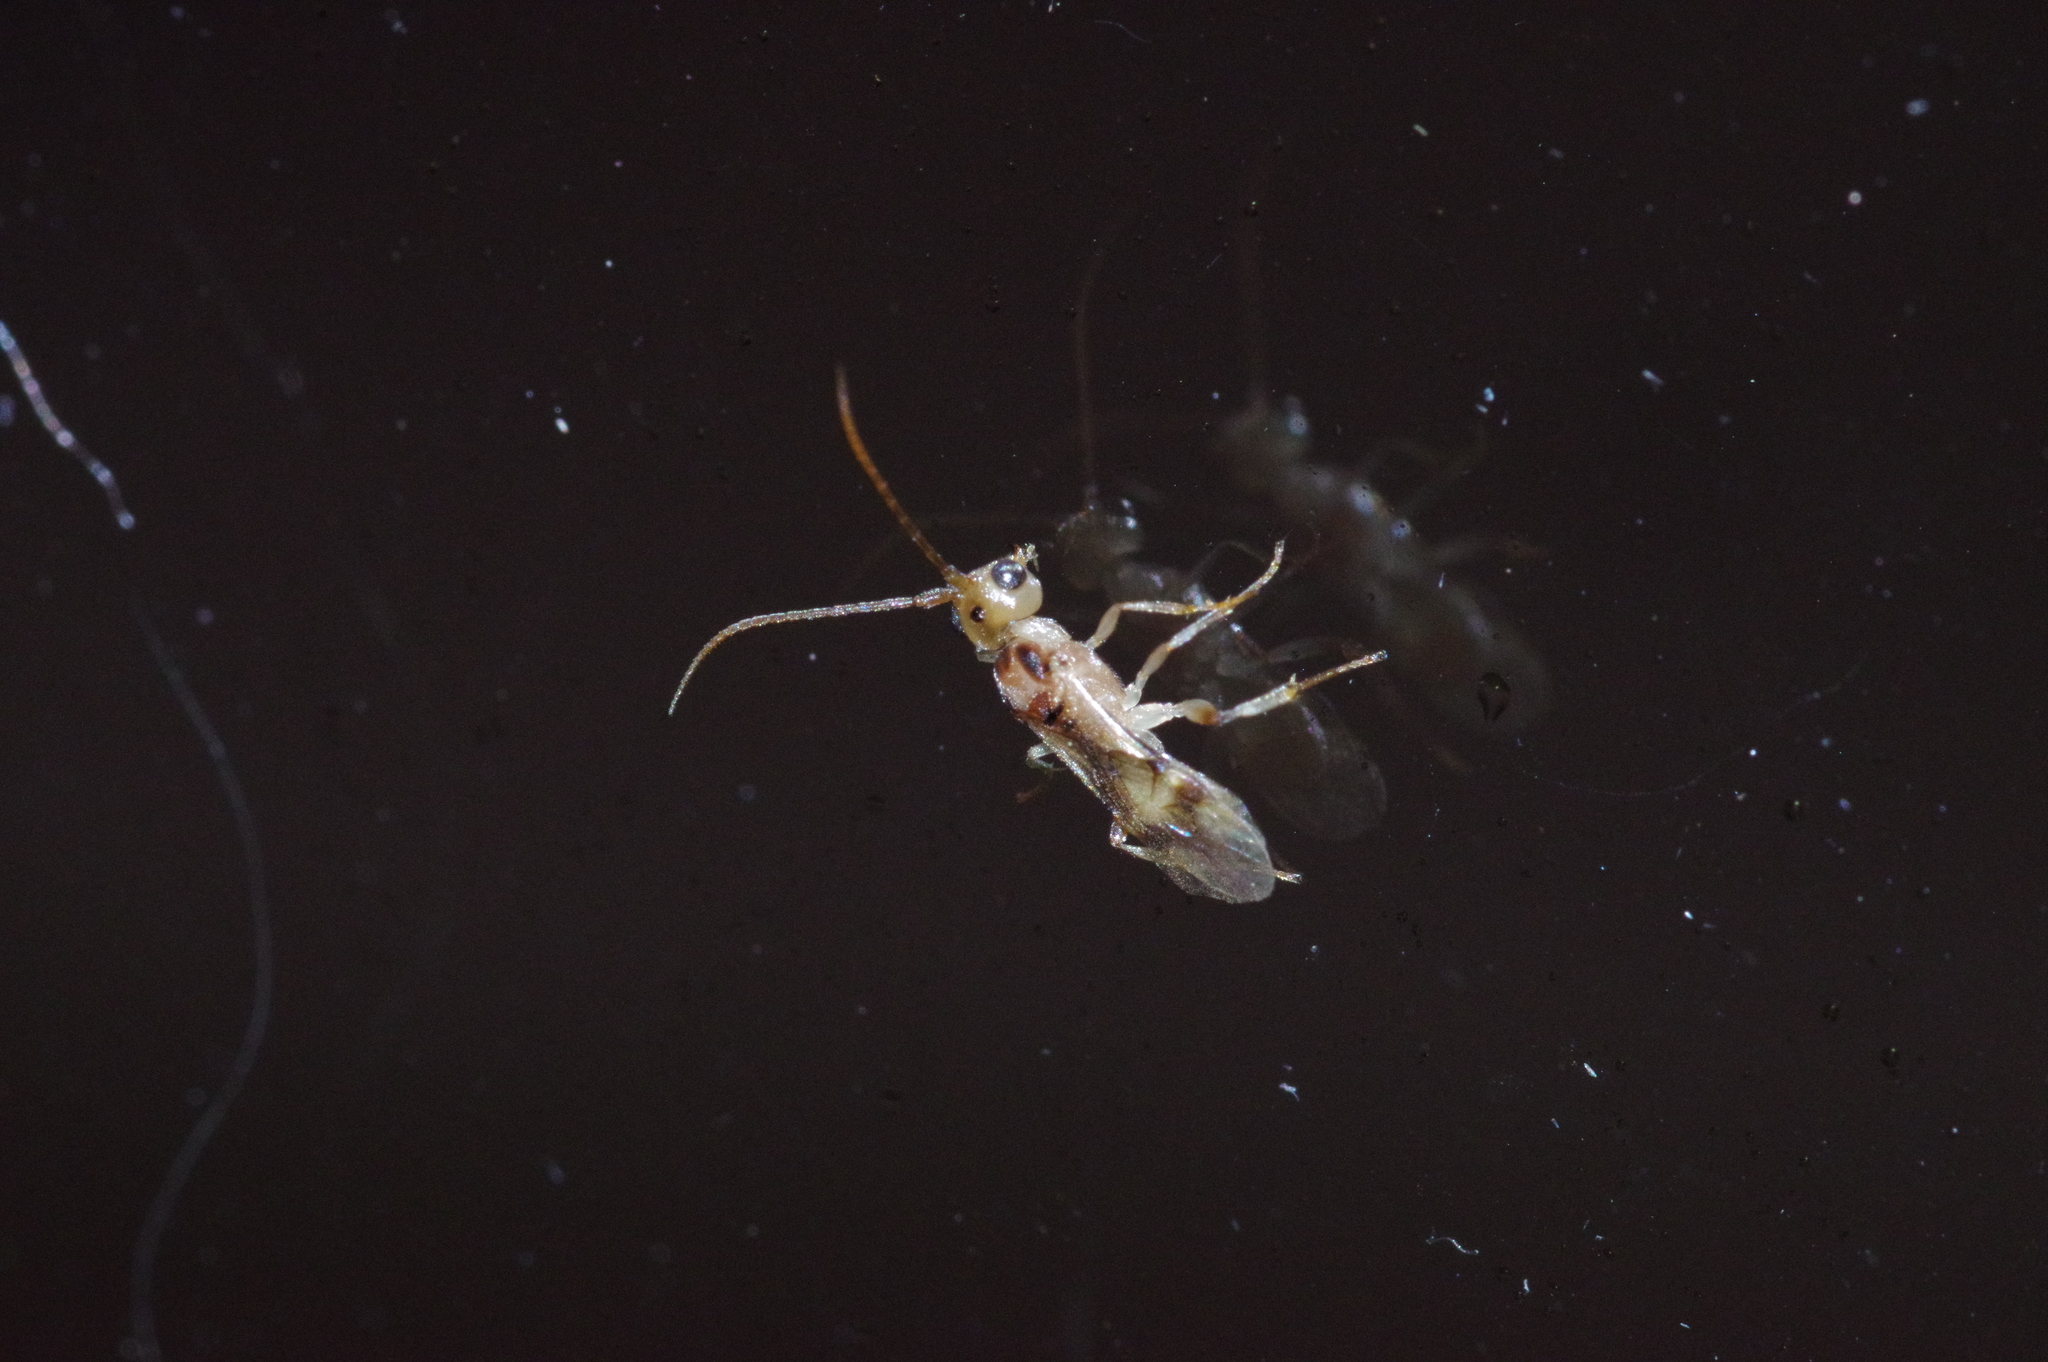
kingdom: Animalia
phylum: Arthropoda
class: Insecta
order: Hymenoptera
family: Braconidae
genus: Phanerotoma
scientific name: Phanerotoma flava
